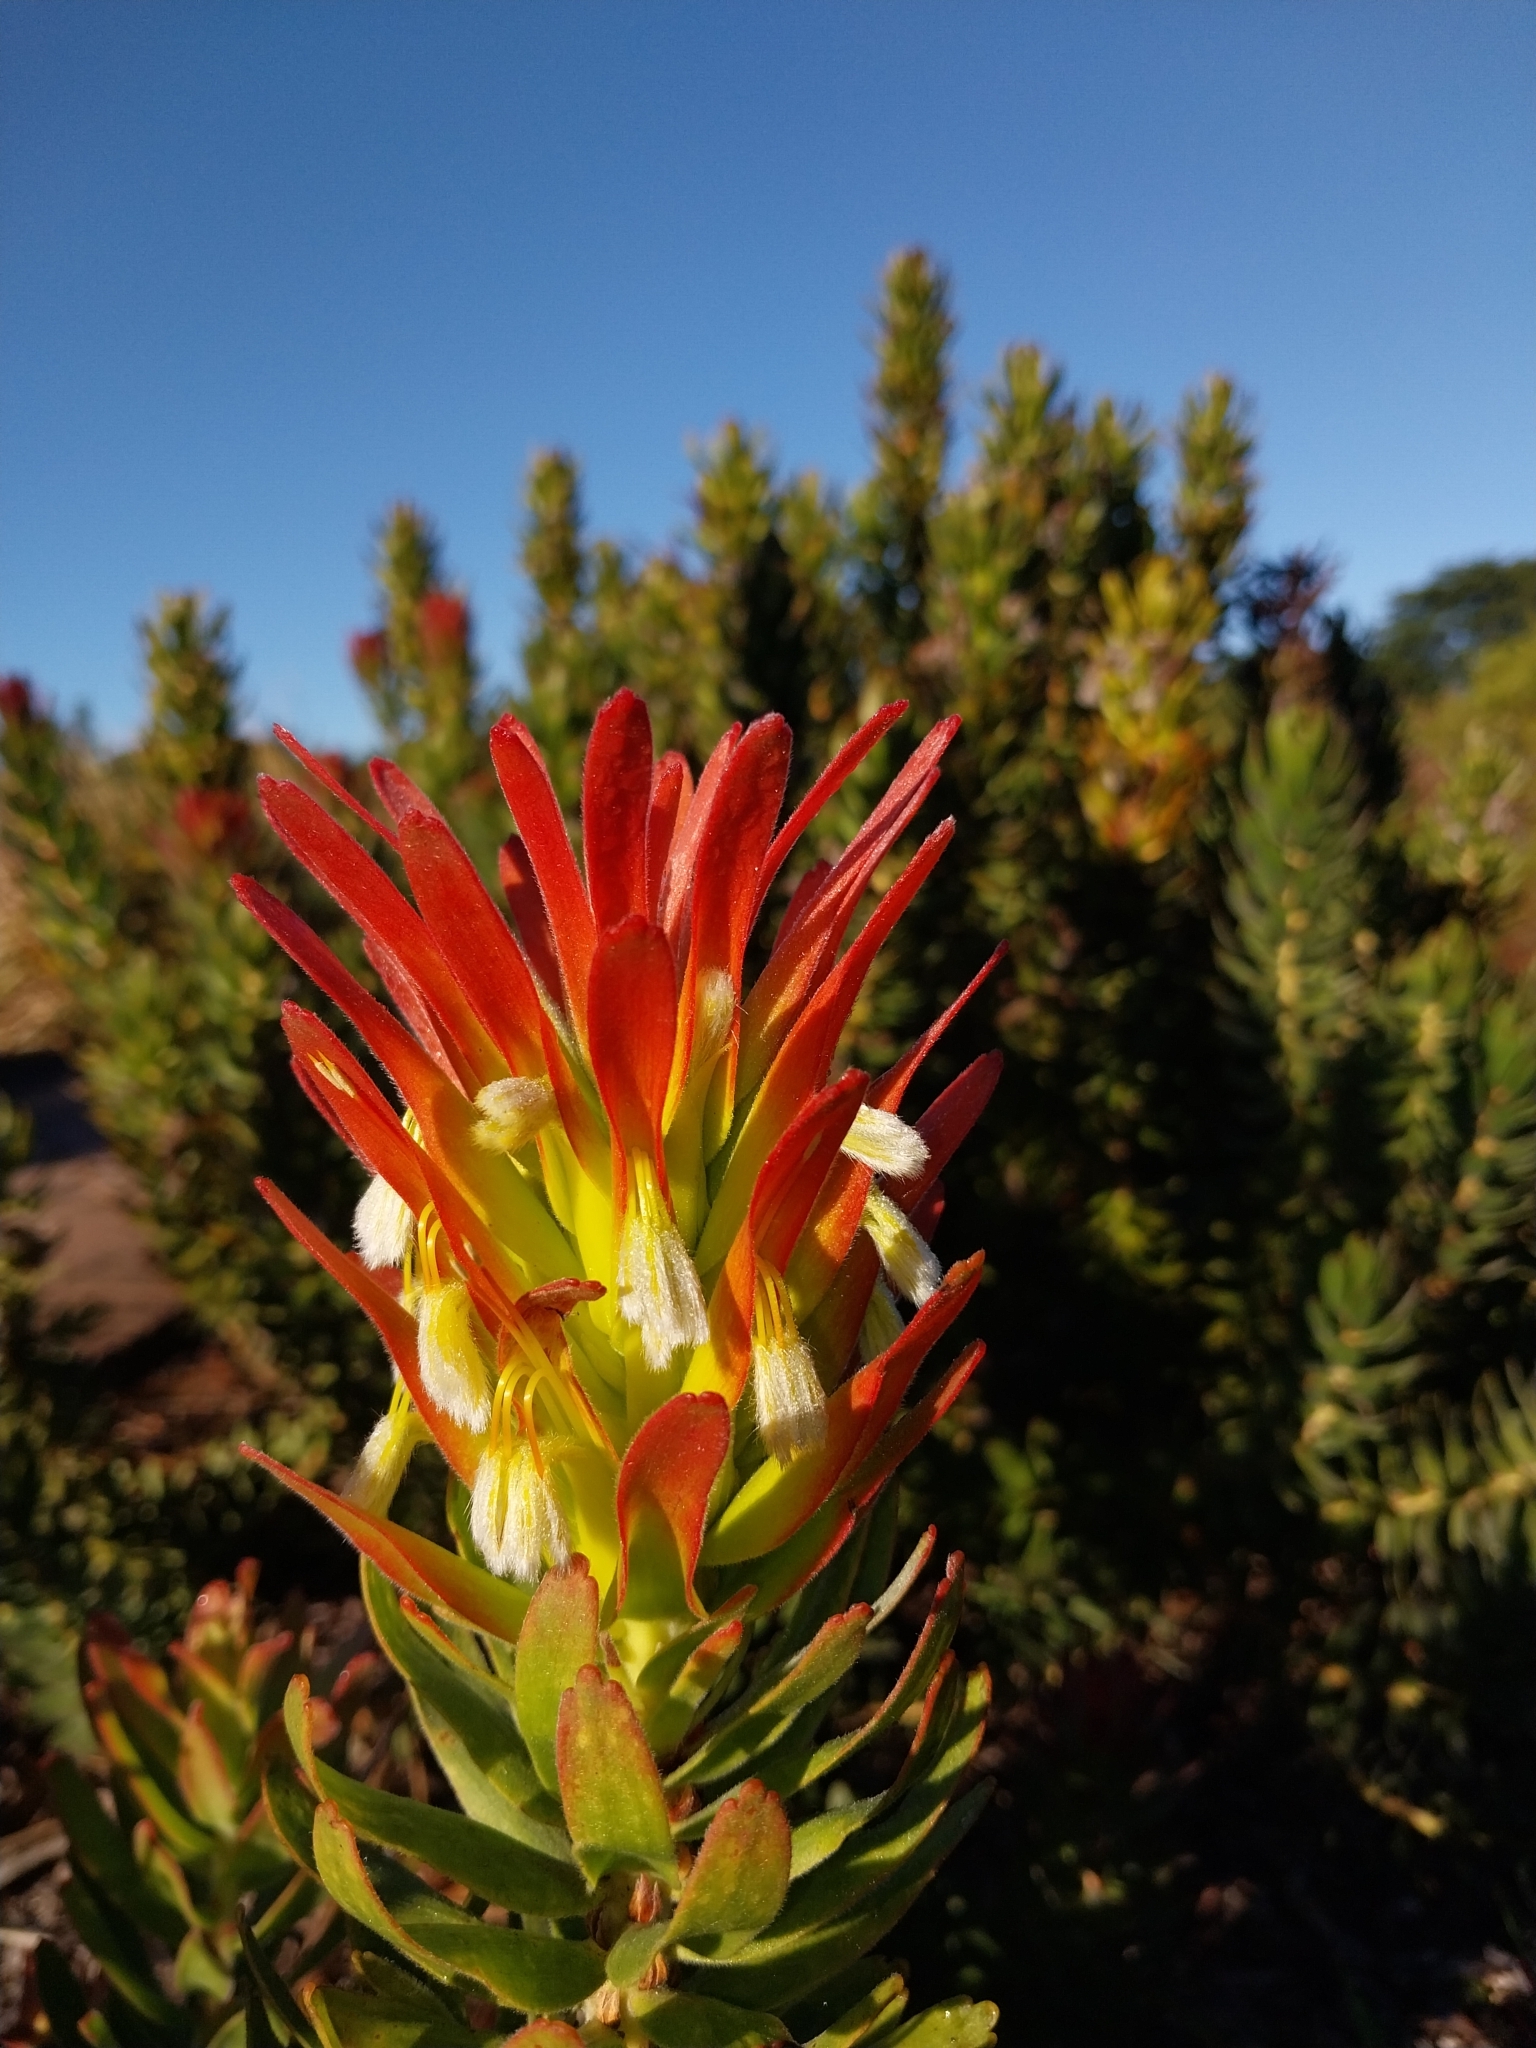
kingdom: Plantae
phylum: Tracheophyta
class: Magnoliopsida
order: Proteales
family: Proteaceae
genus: Mimetes
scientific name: Mimetes cucullatus
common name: Common pagoda
